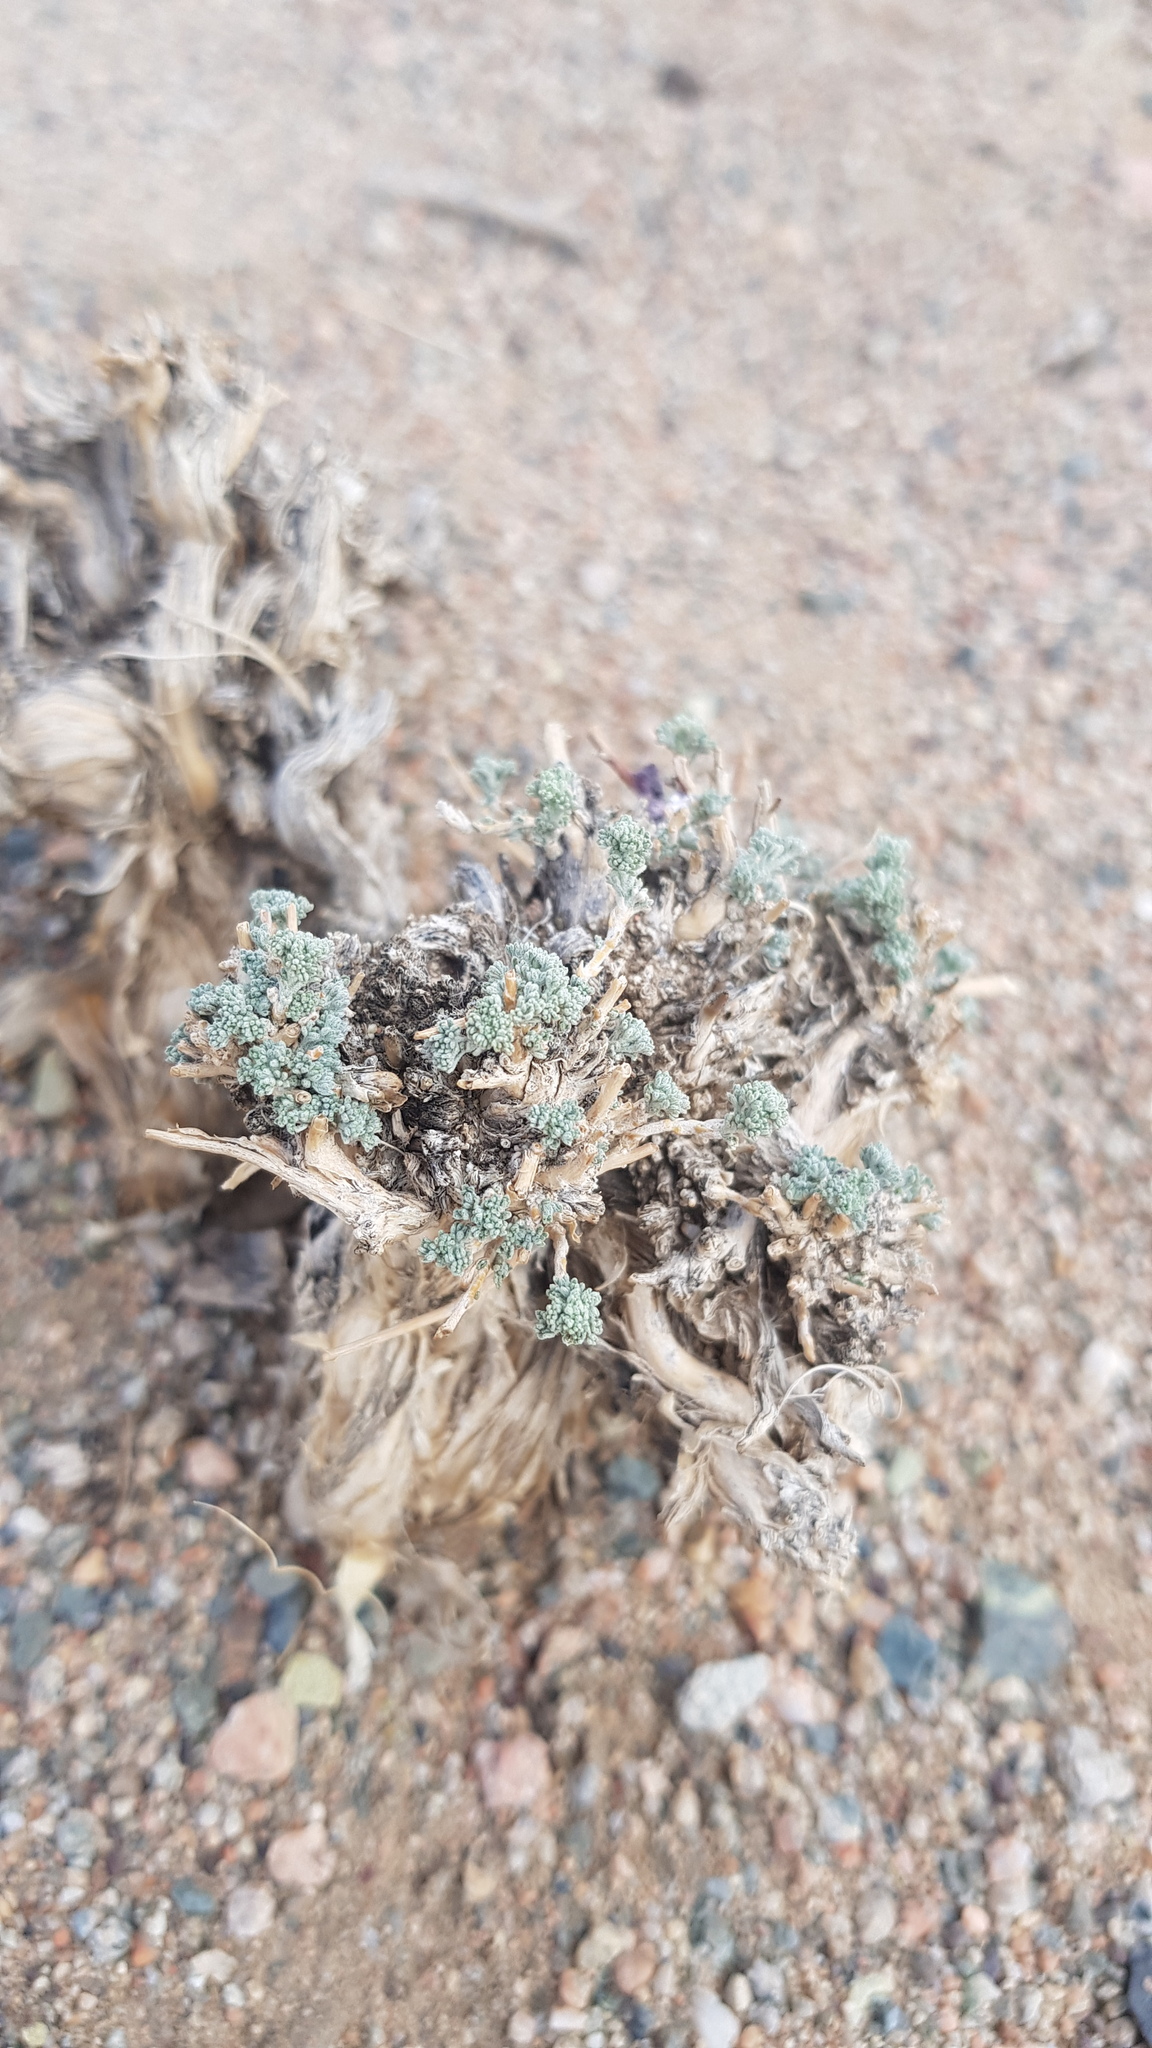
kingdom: Plantae
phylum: Tracheophyta
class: Magnoliopsida
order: Asterales
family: Asteraceae
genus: Artemisia
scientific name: Artemisia xerophytica
